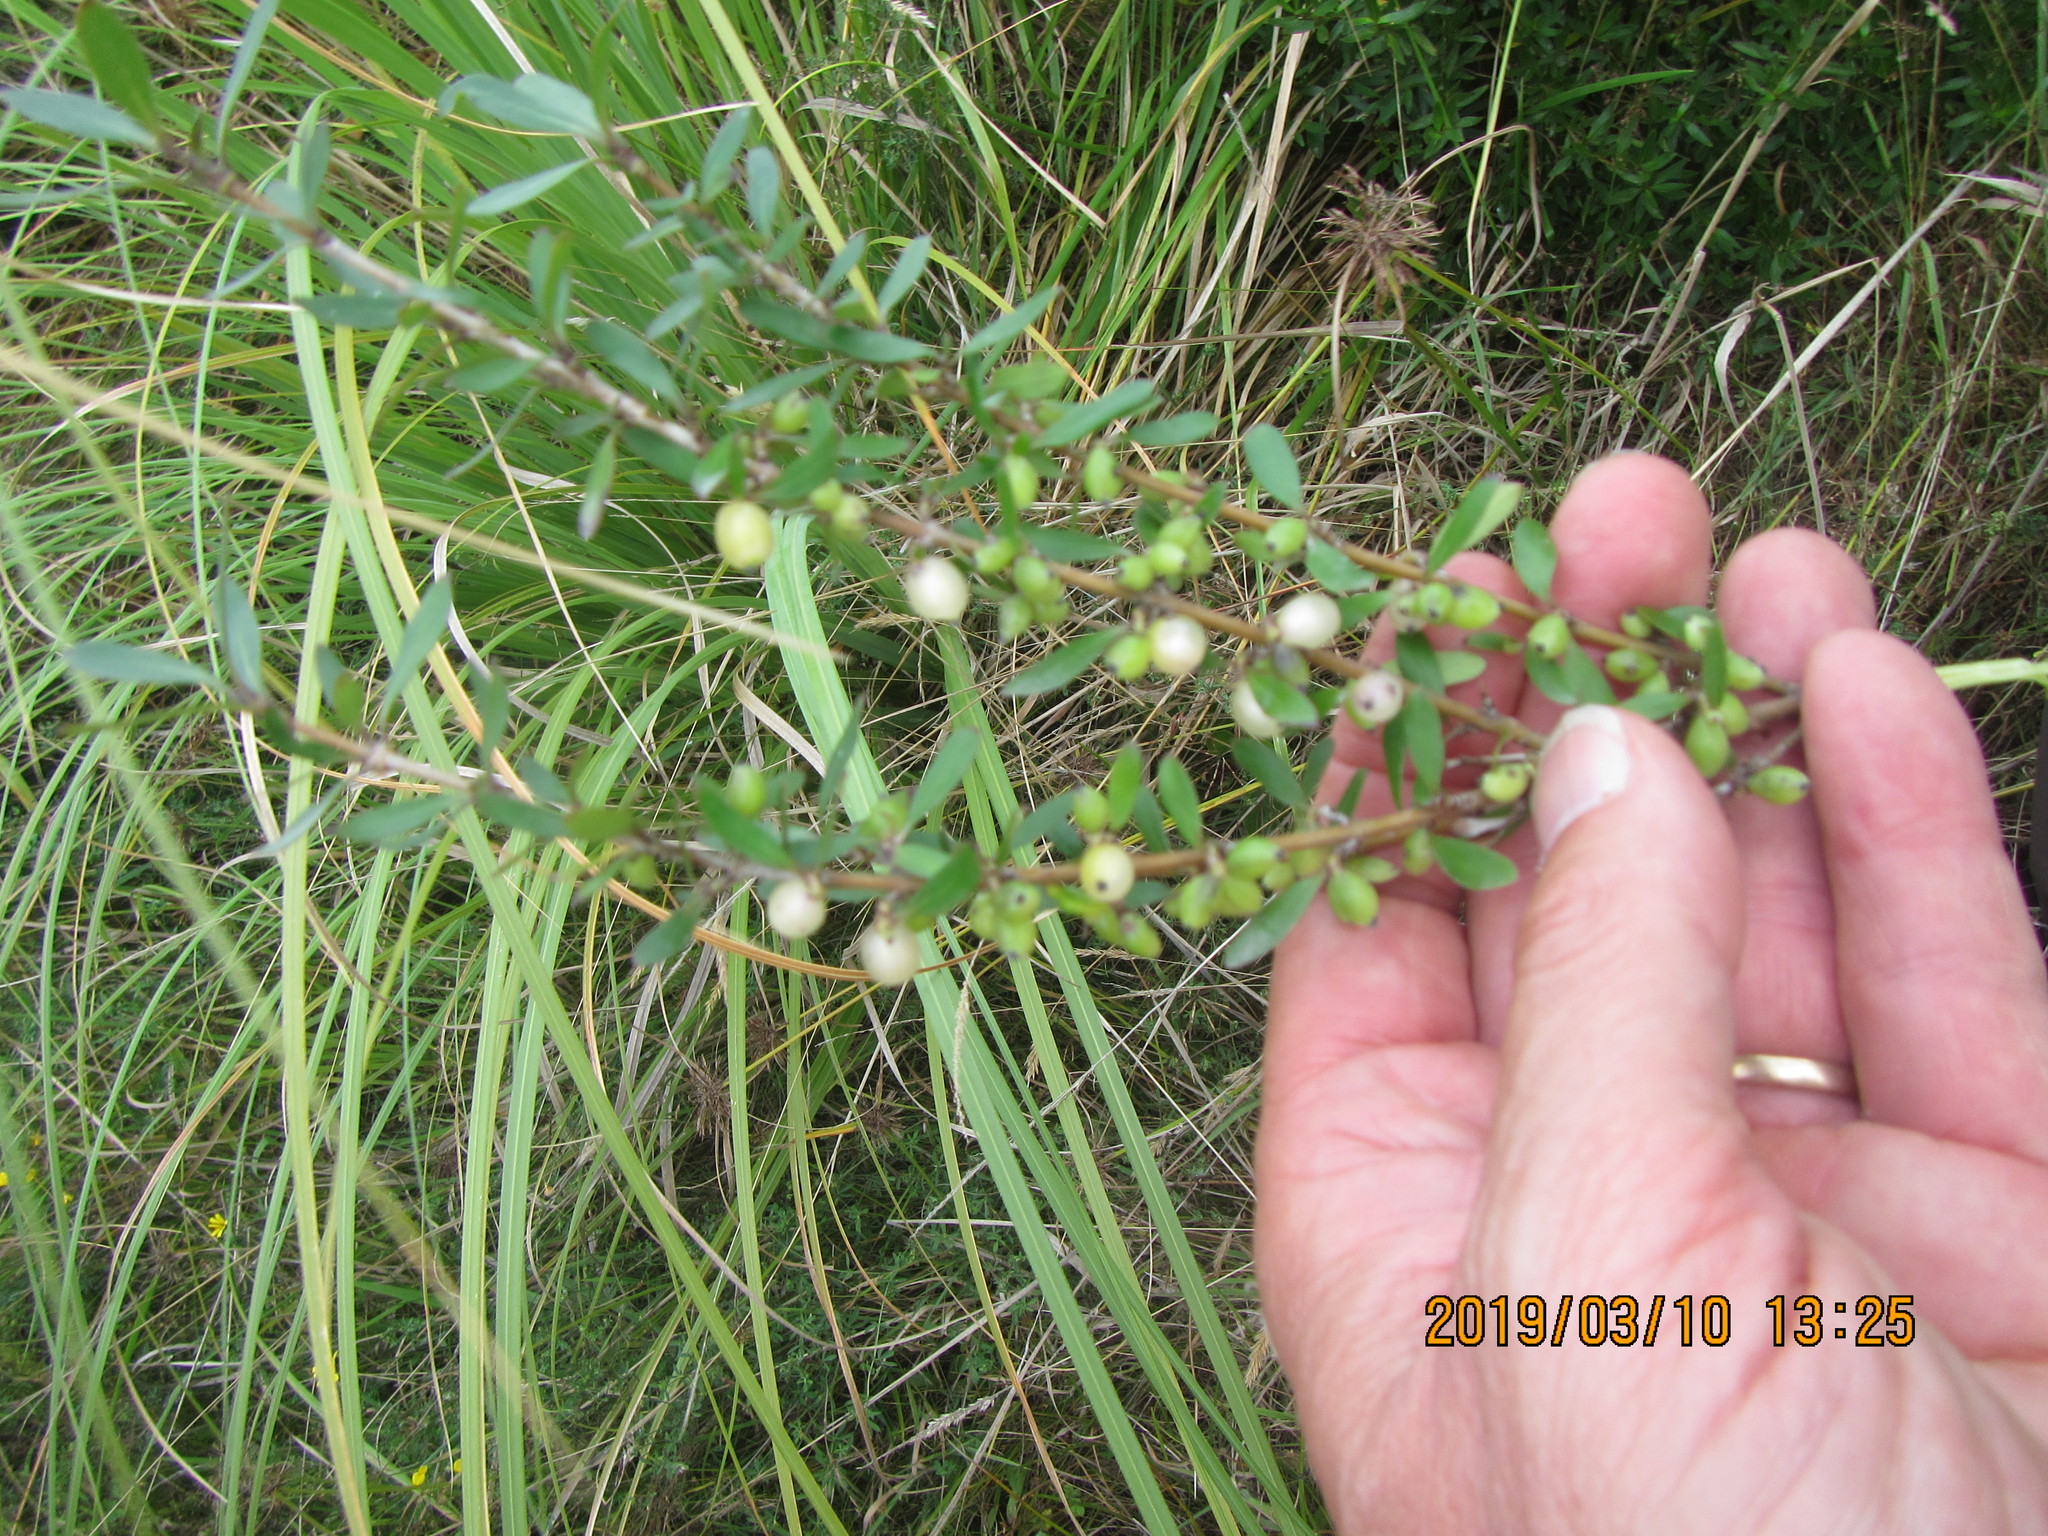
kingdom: Plantae
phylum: Tracheophyta
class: Magnoliopsida
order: Gentianales
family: Rubiaceae
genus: Coprosma
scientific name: Coprosma cunninghamii
